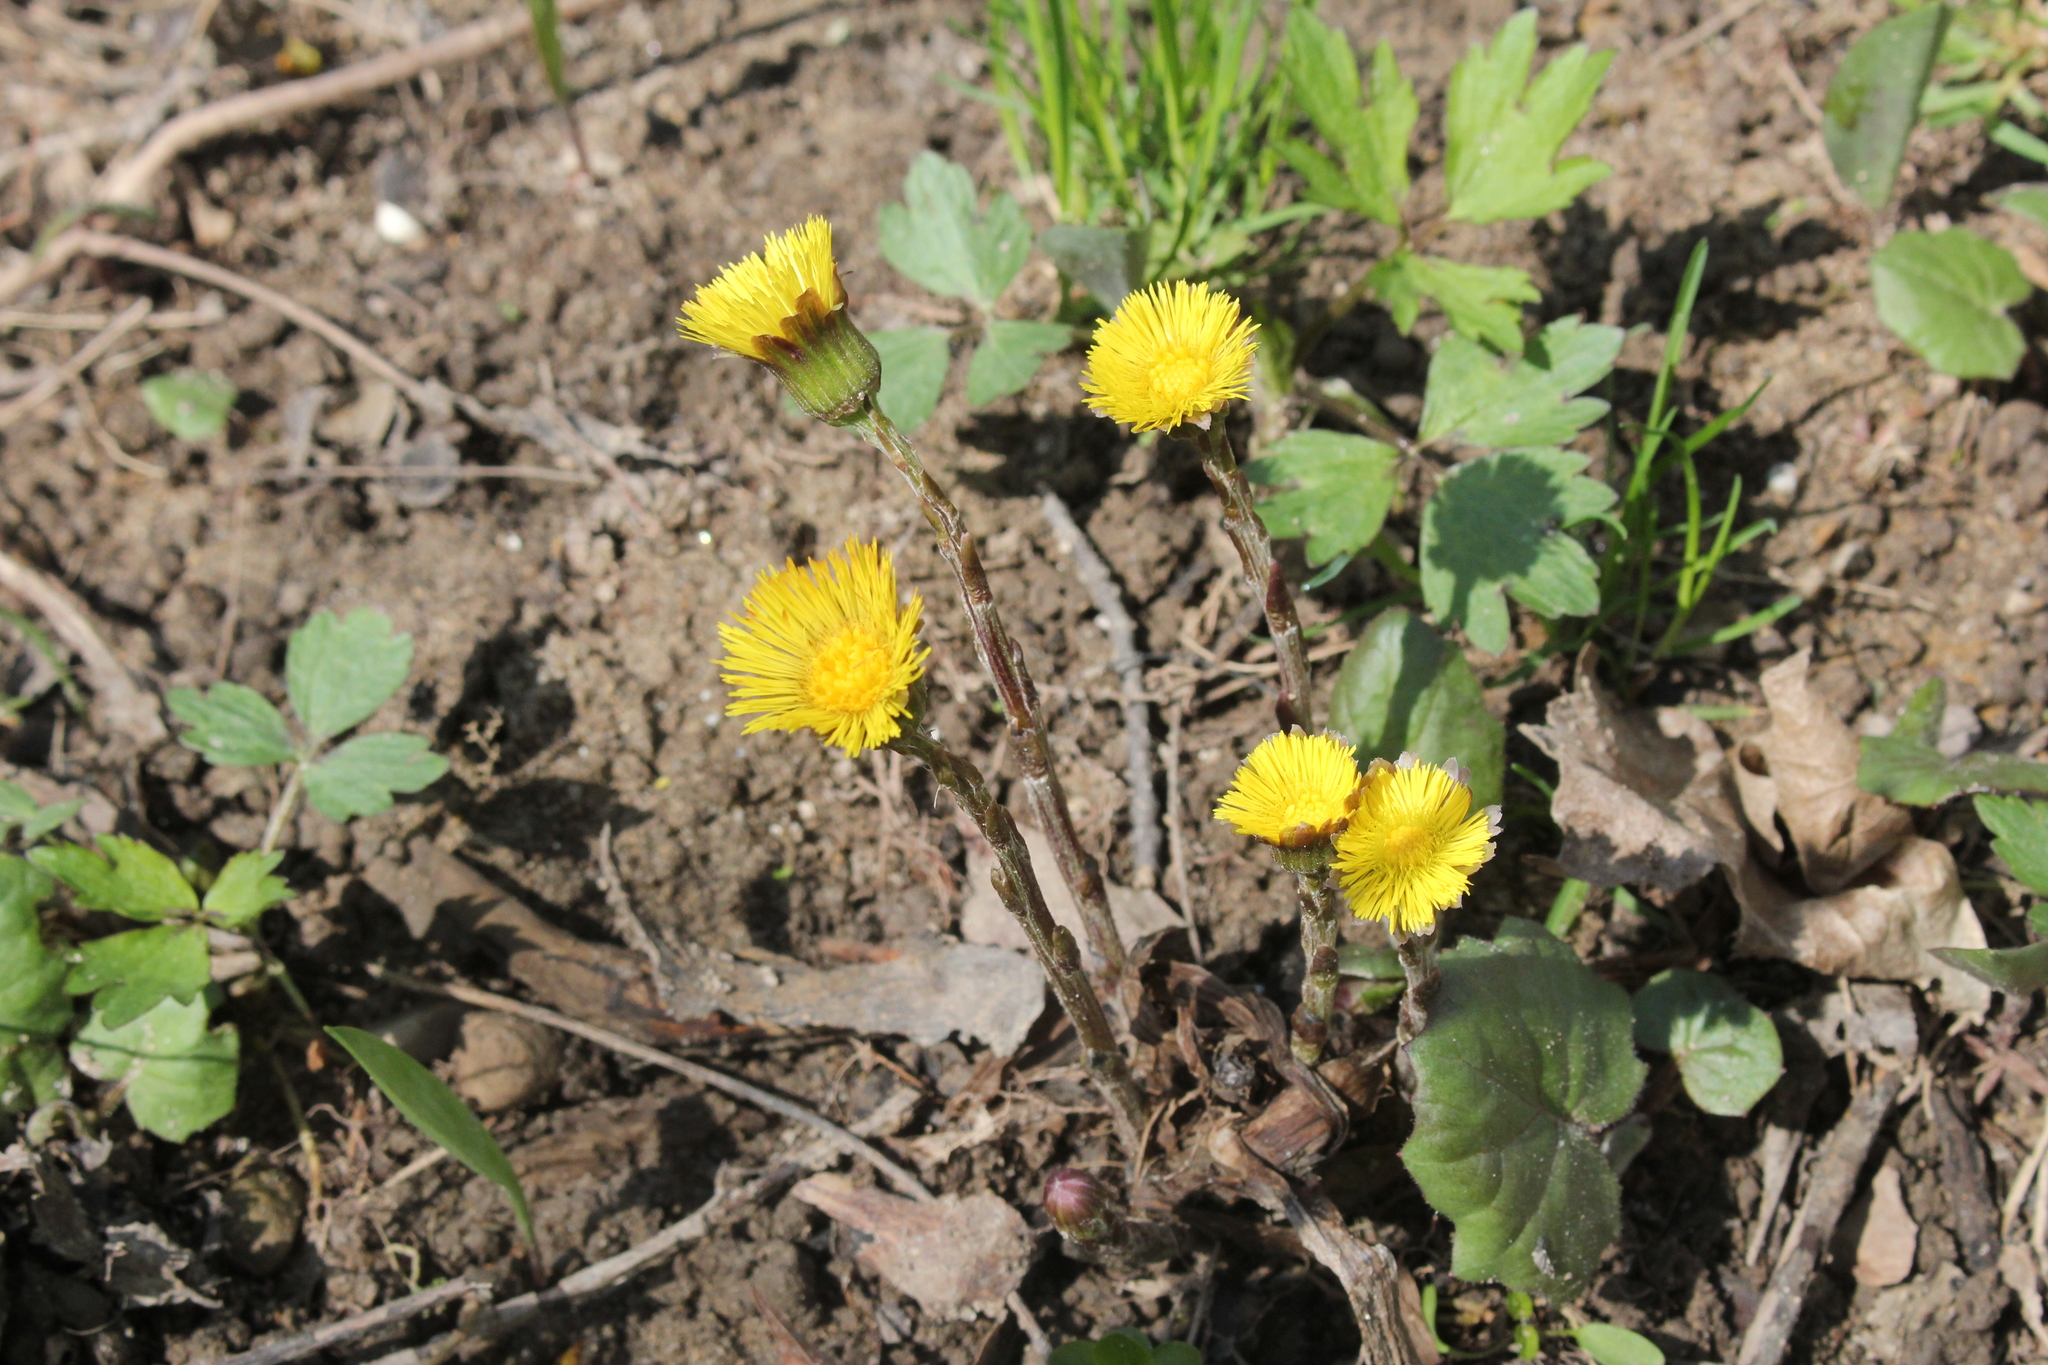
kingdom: Plantae
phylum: Tracheophyta
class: Magnoliopsida
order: Asterales
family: Asteraceae
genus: Tussilago
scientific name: Tussilago farfara
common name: Coltsfoot
